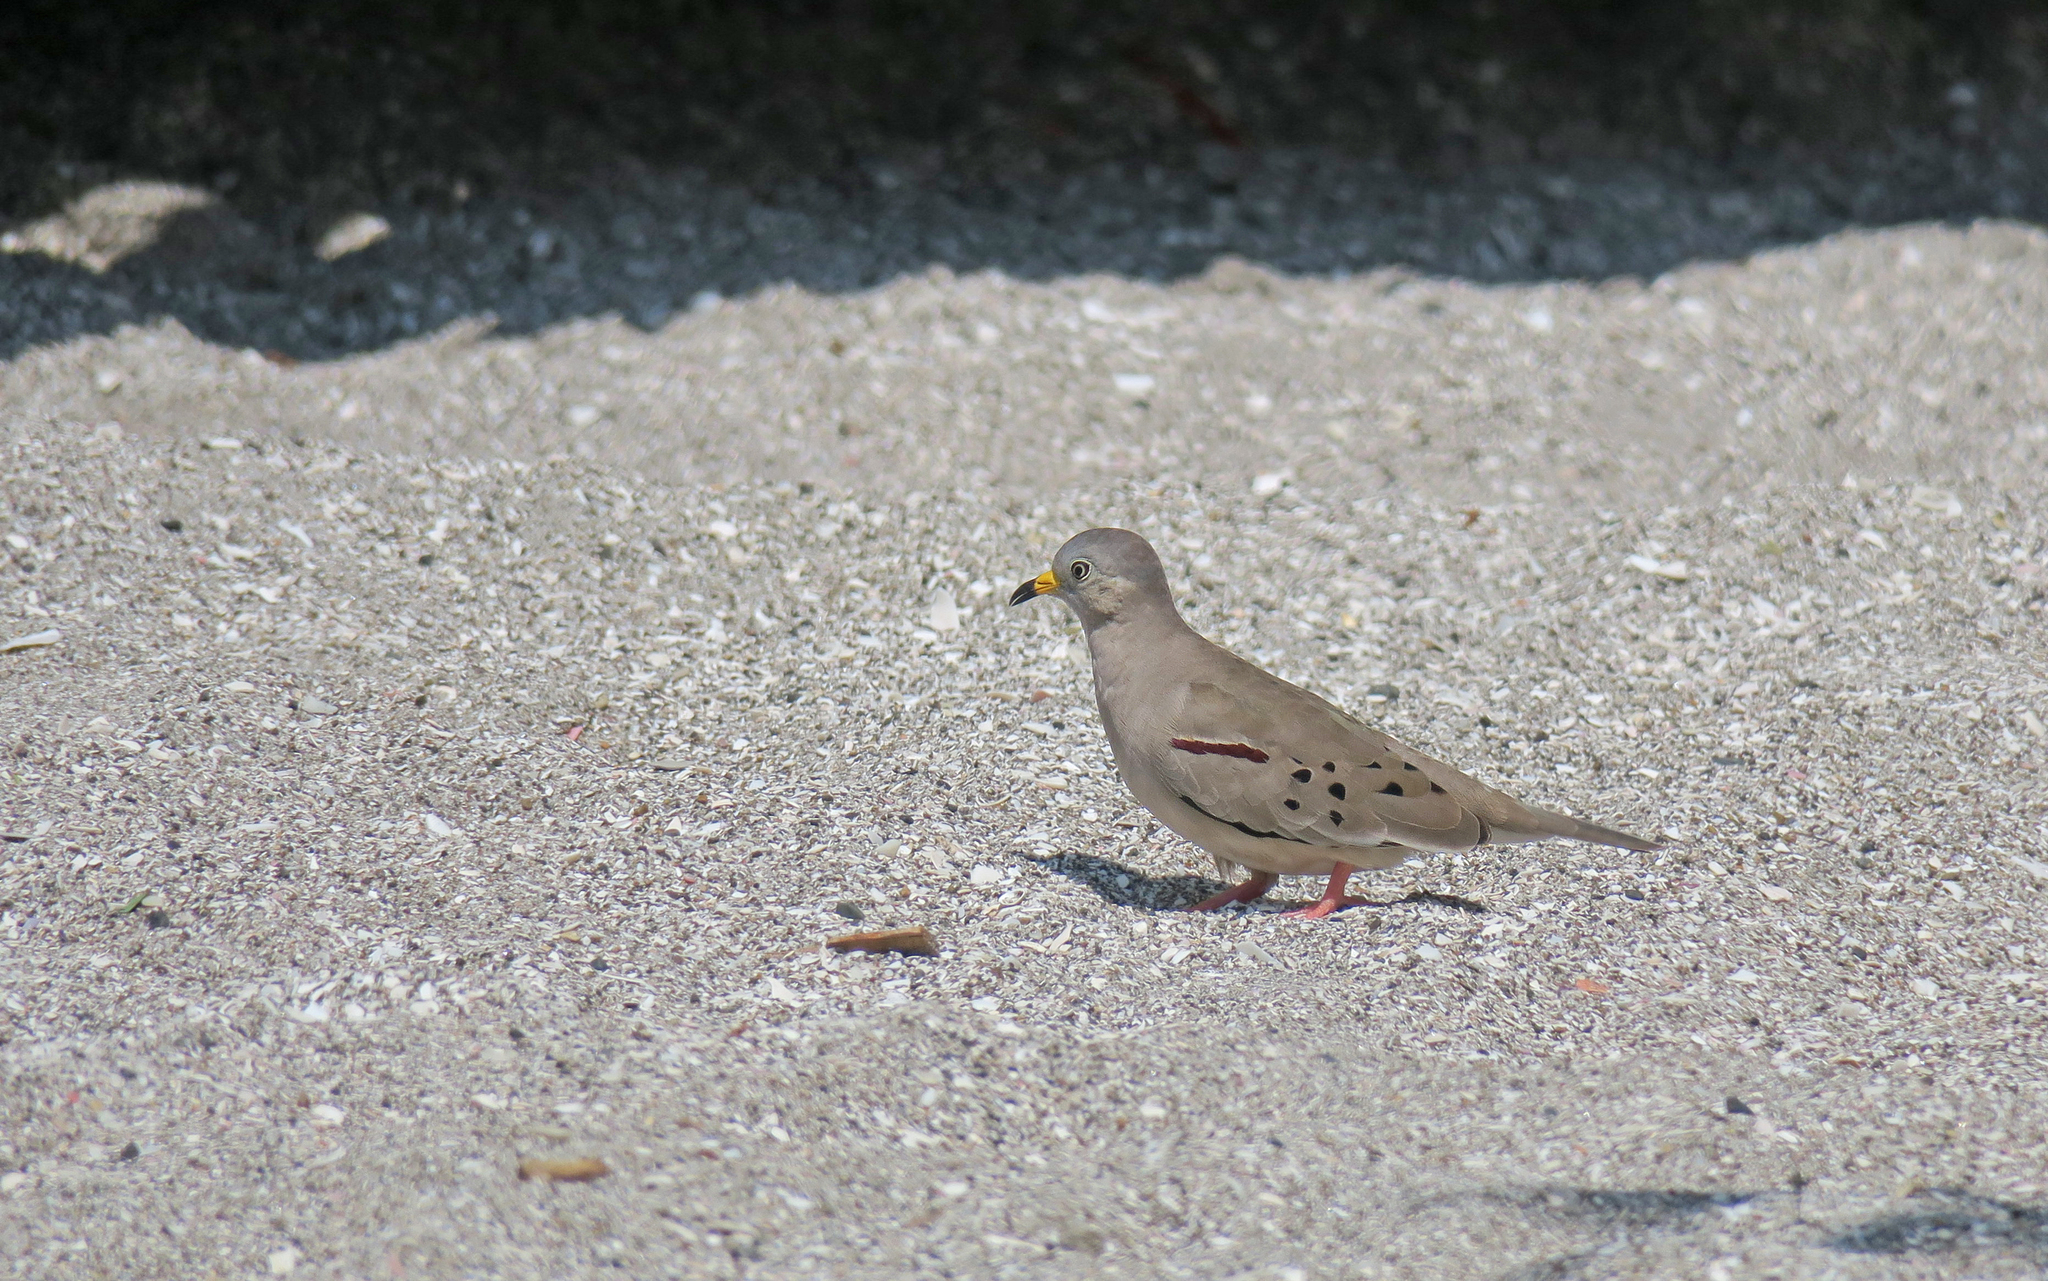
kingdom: Animalia
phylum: Chordata
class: Aves
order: Columbiformes
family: Columbidae
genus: Columbina
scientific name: Columbina cruziana
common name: Croaking ground dove
